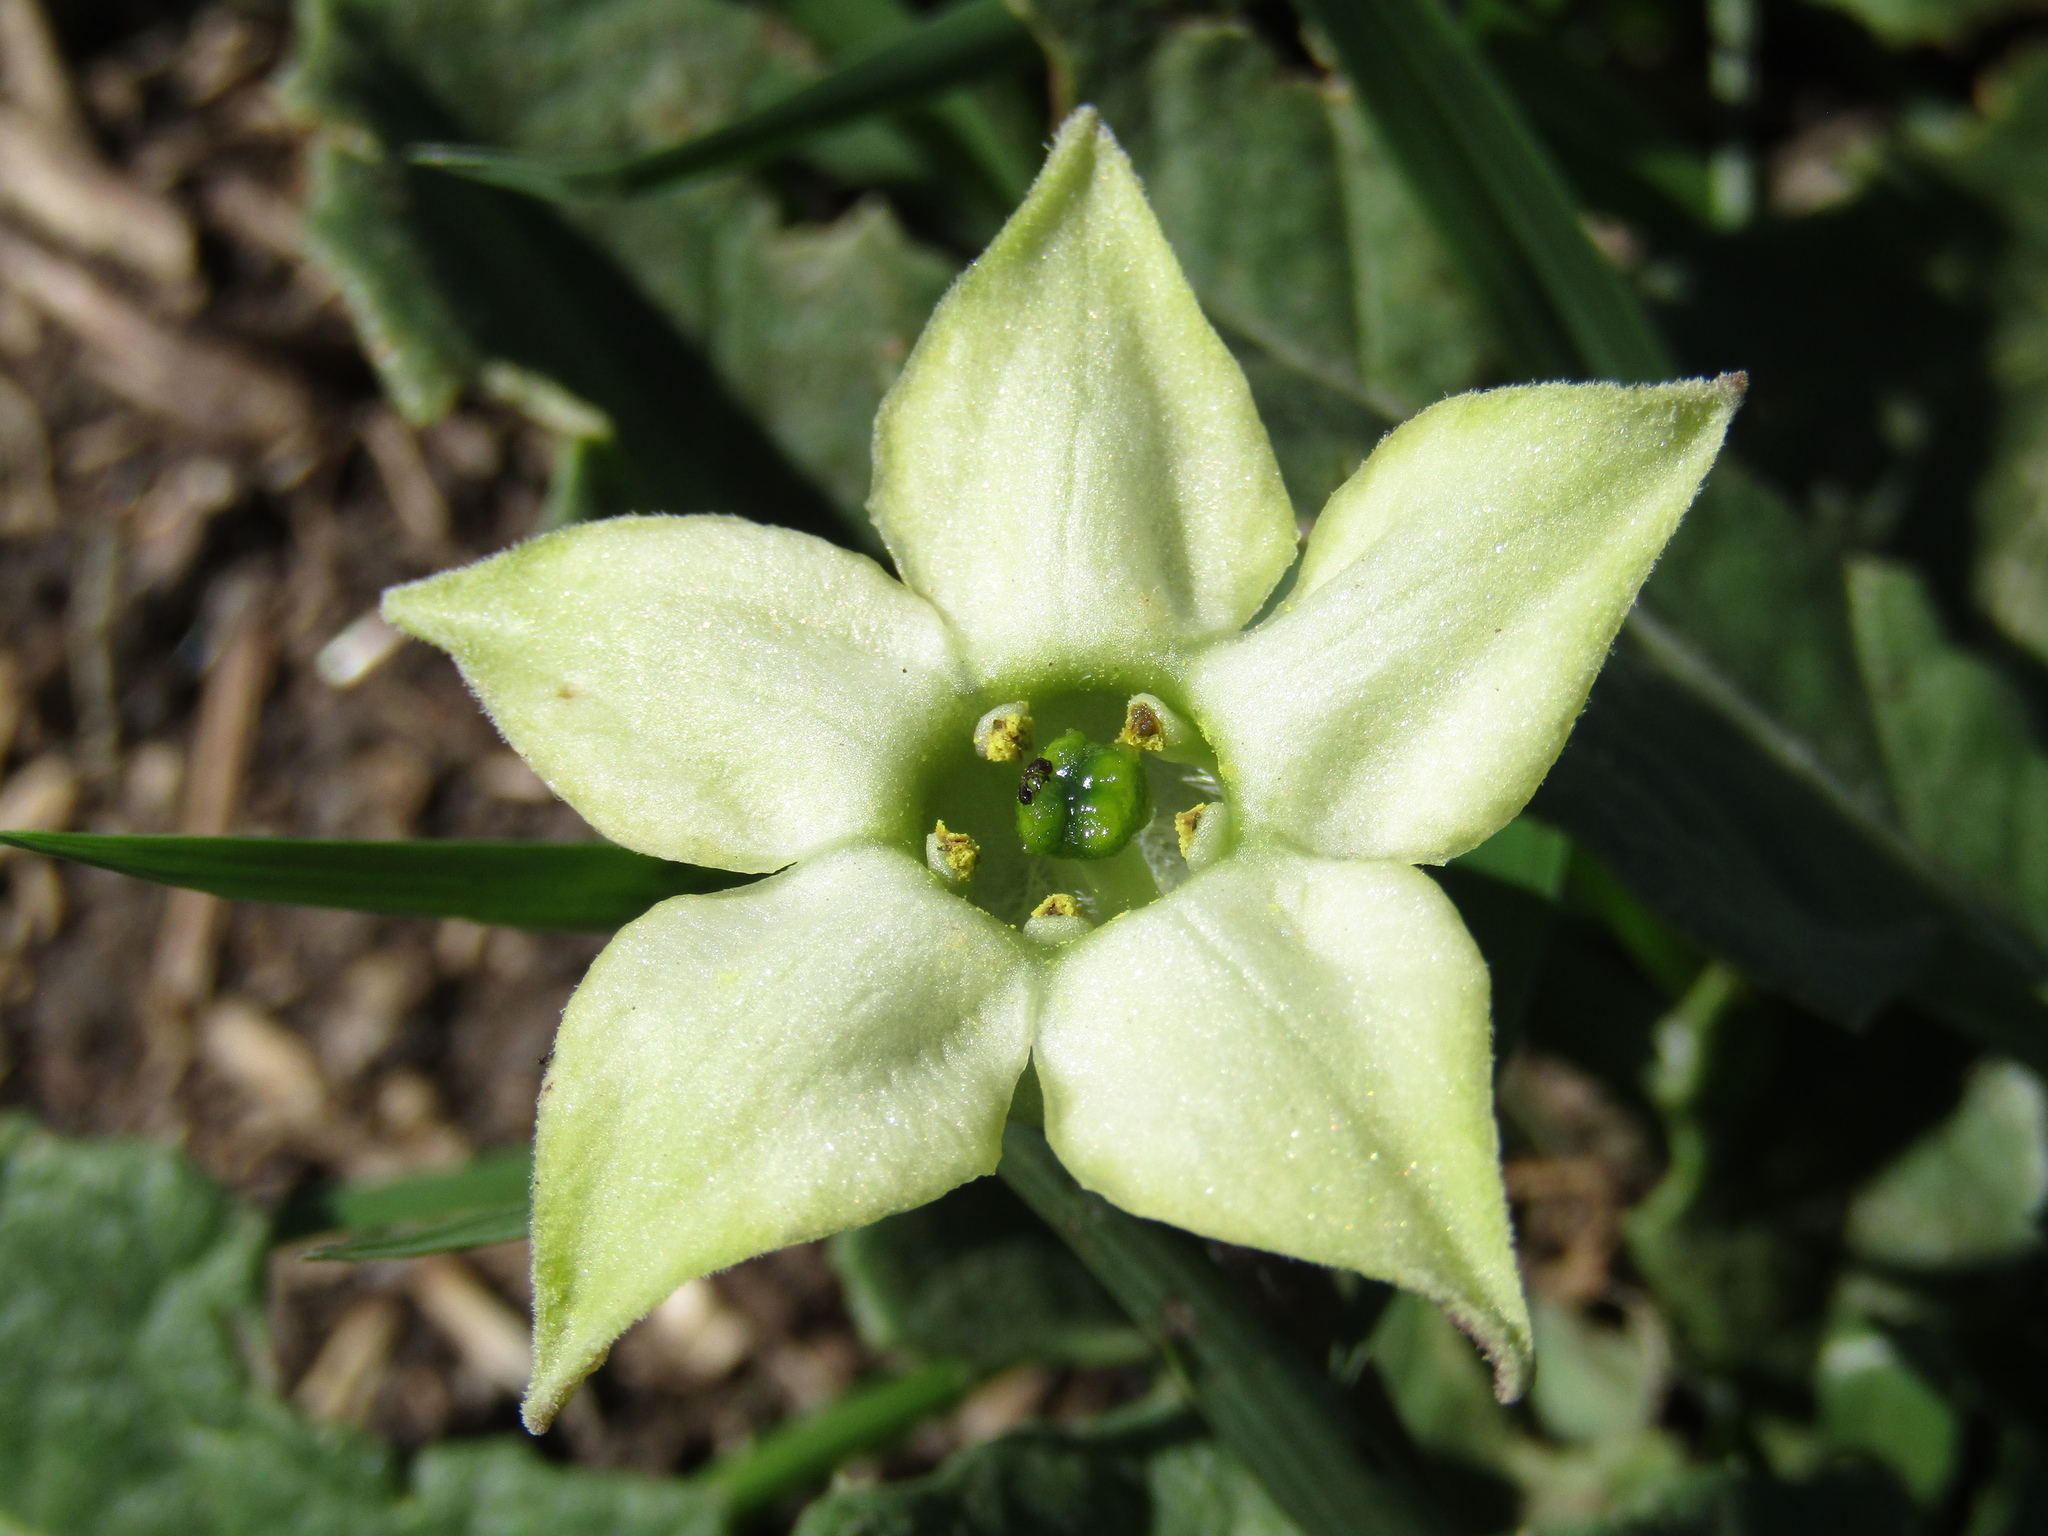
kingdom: Plantae
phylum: Tracheophyta
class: Magnoliopsida
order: Solanales
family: Solanaceae
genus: Jaborosa
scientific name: Jaborosa runcinata
